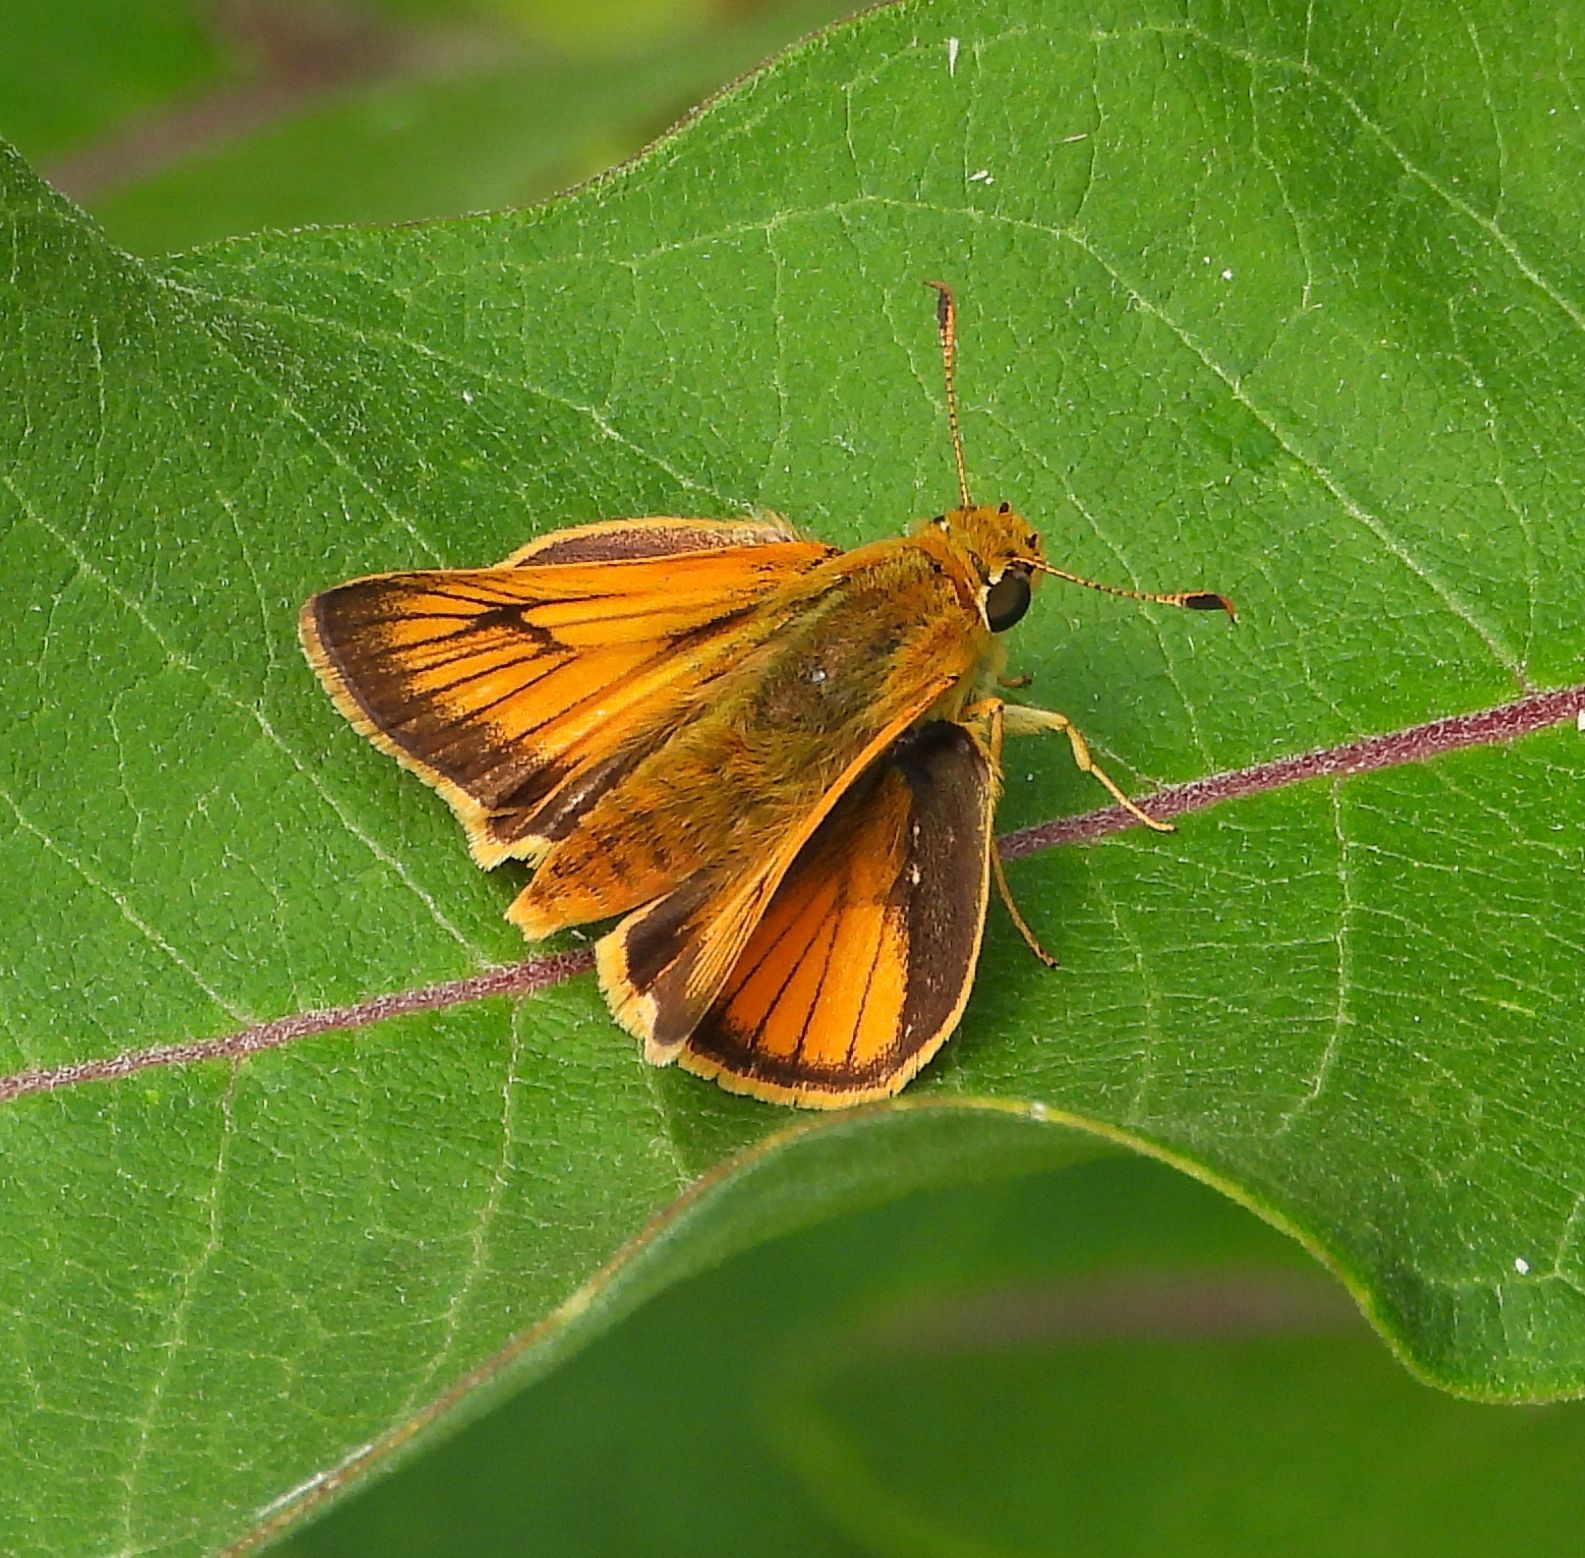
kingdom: Animalia
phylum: Arthropoda
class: Insecta
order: Lepidoptera
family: Hesperiidae
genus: Atrytone
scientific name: Atrytone delaware
